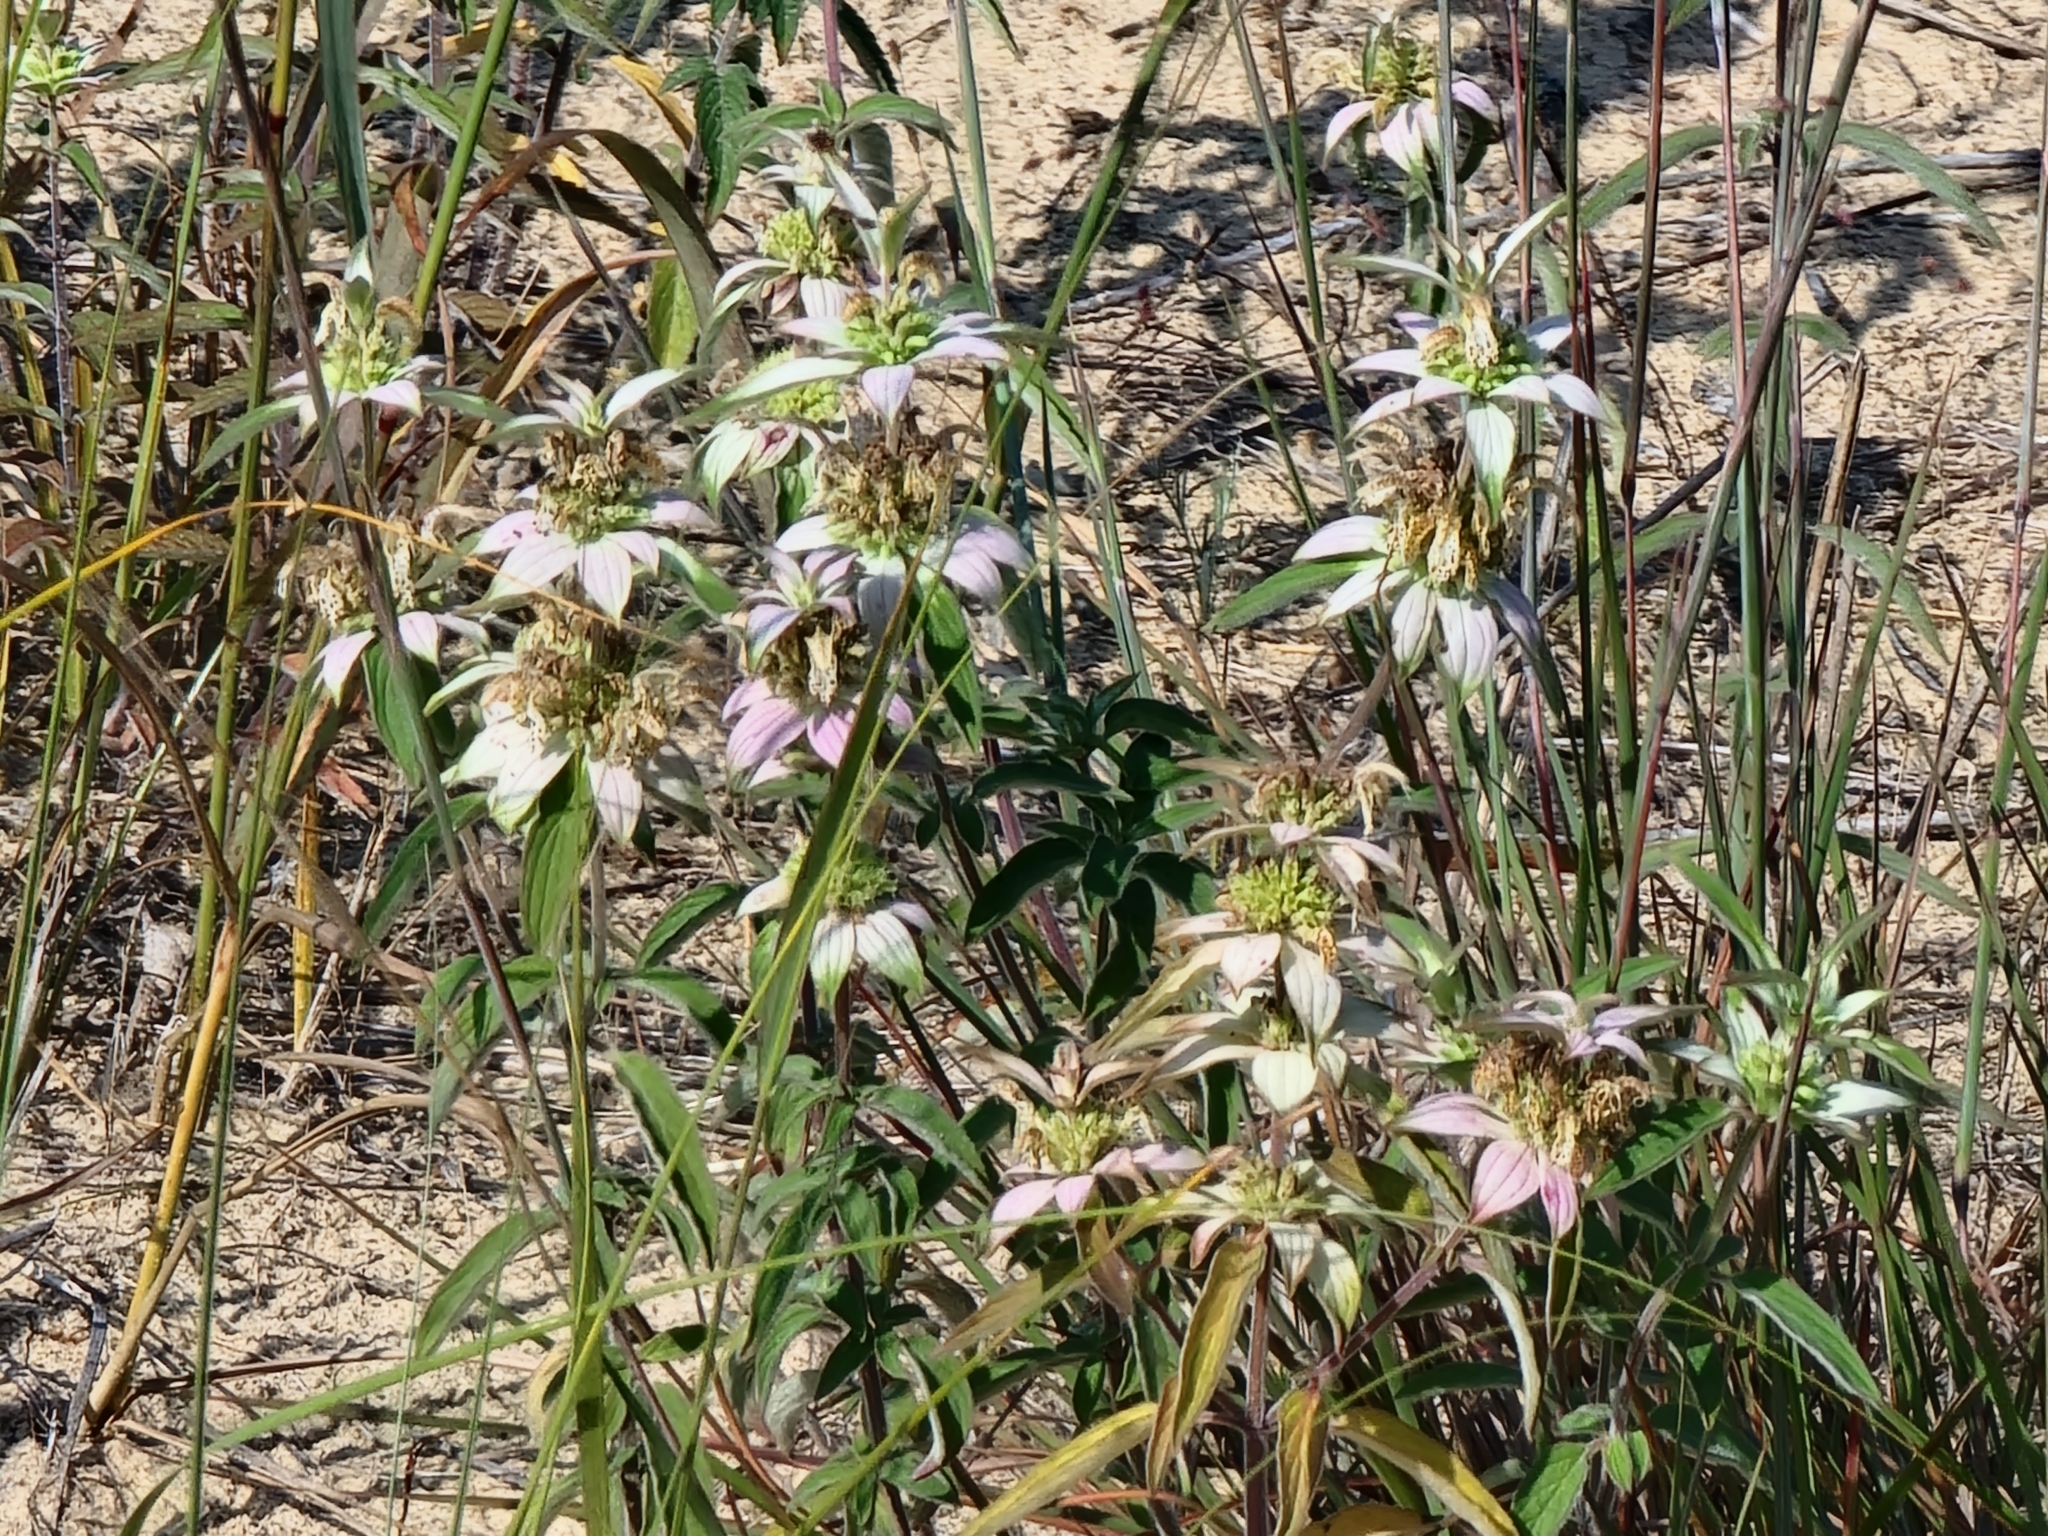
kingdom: Plantae
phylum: Tracheophyta
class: Magnoliopsida
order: Lamiales
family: Lamiaceae
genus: Monarda
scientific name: Monarda punctata
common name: Dotted monarda
